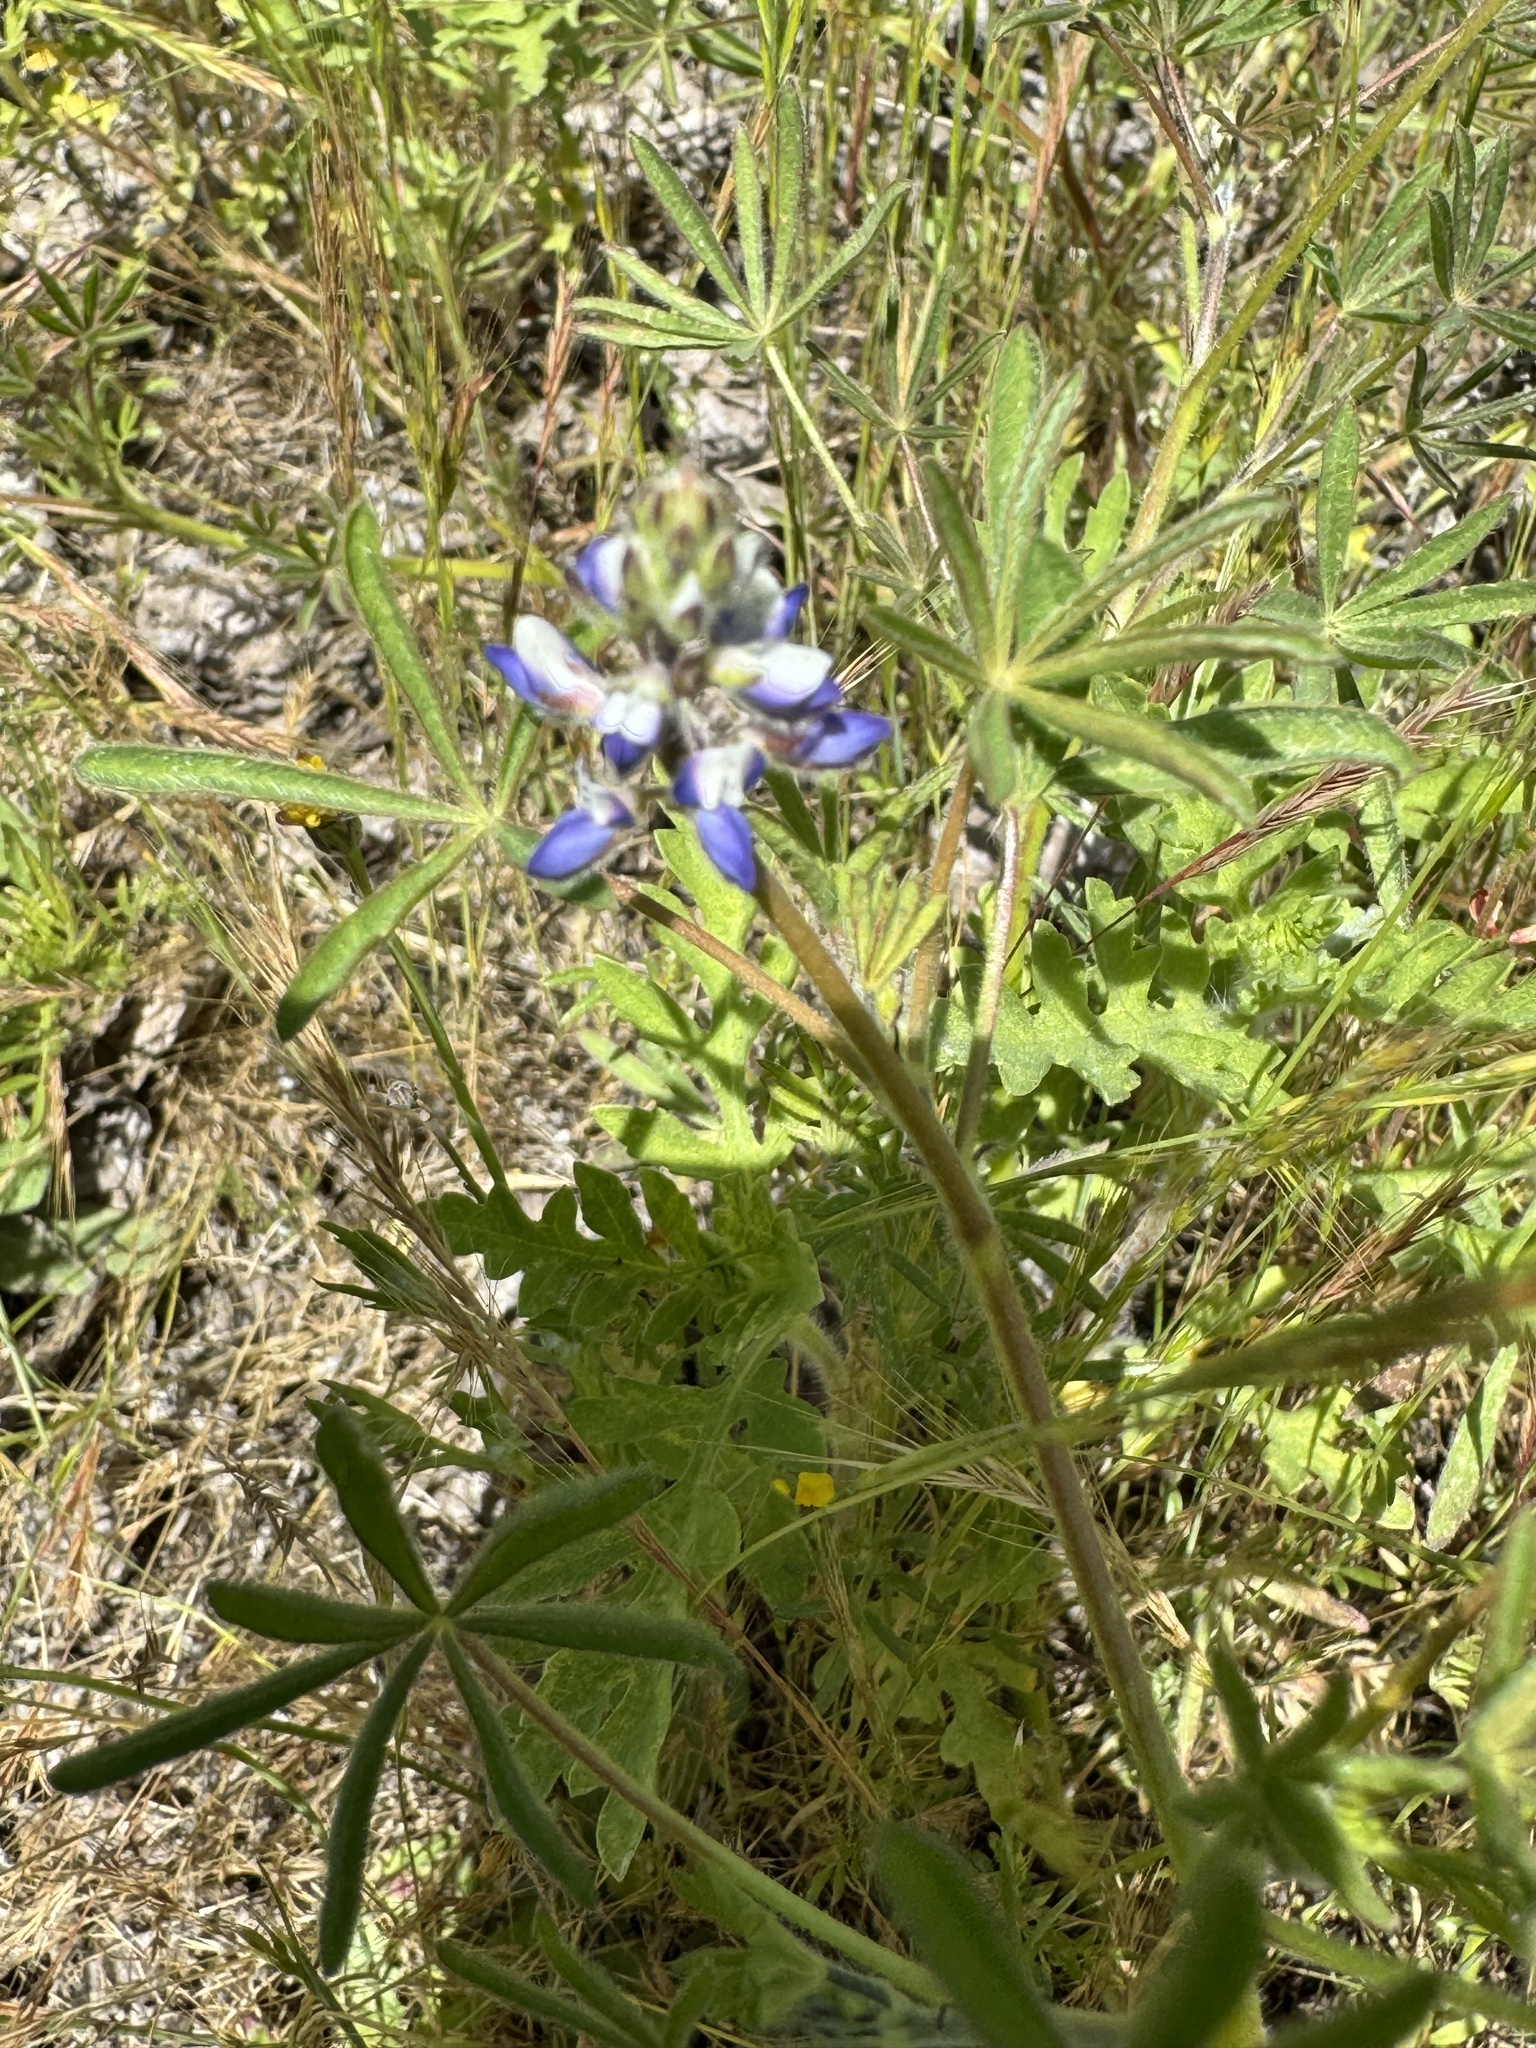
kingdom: Plantae
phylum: Tracheophyta
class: Magnoliopsida
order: Fabales
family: Fabaceae
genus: Lupinus
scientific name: Lupinus bicolor
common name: Miniature lupine
